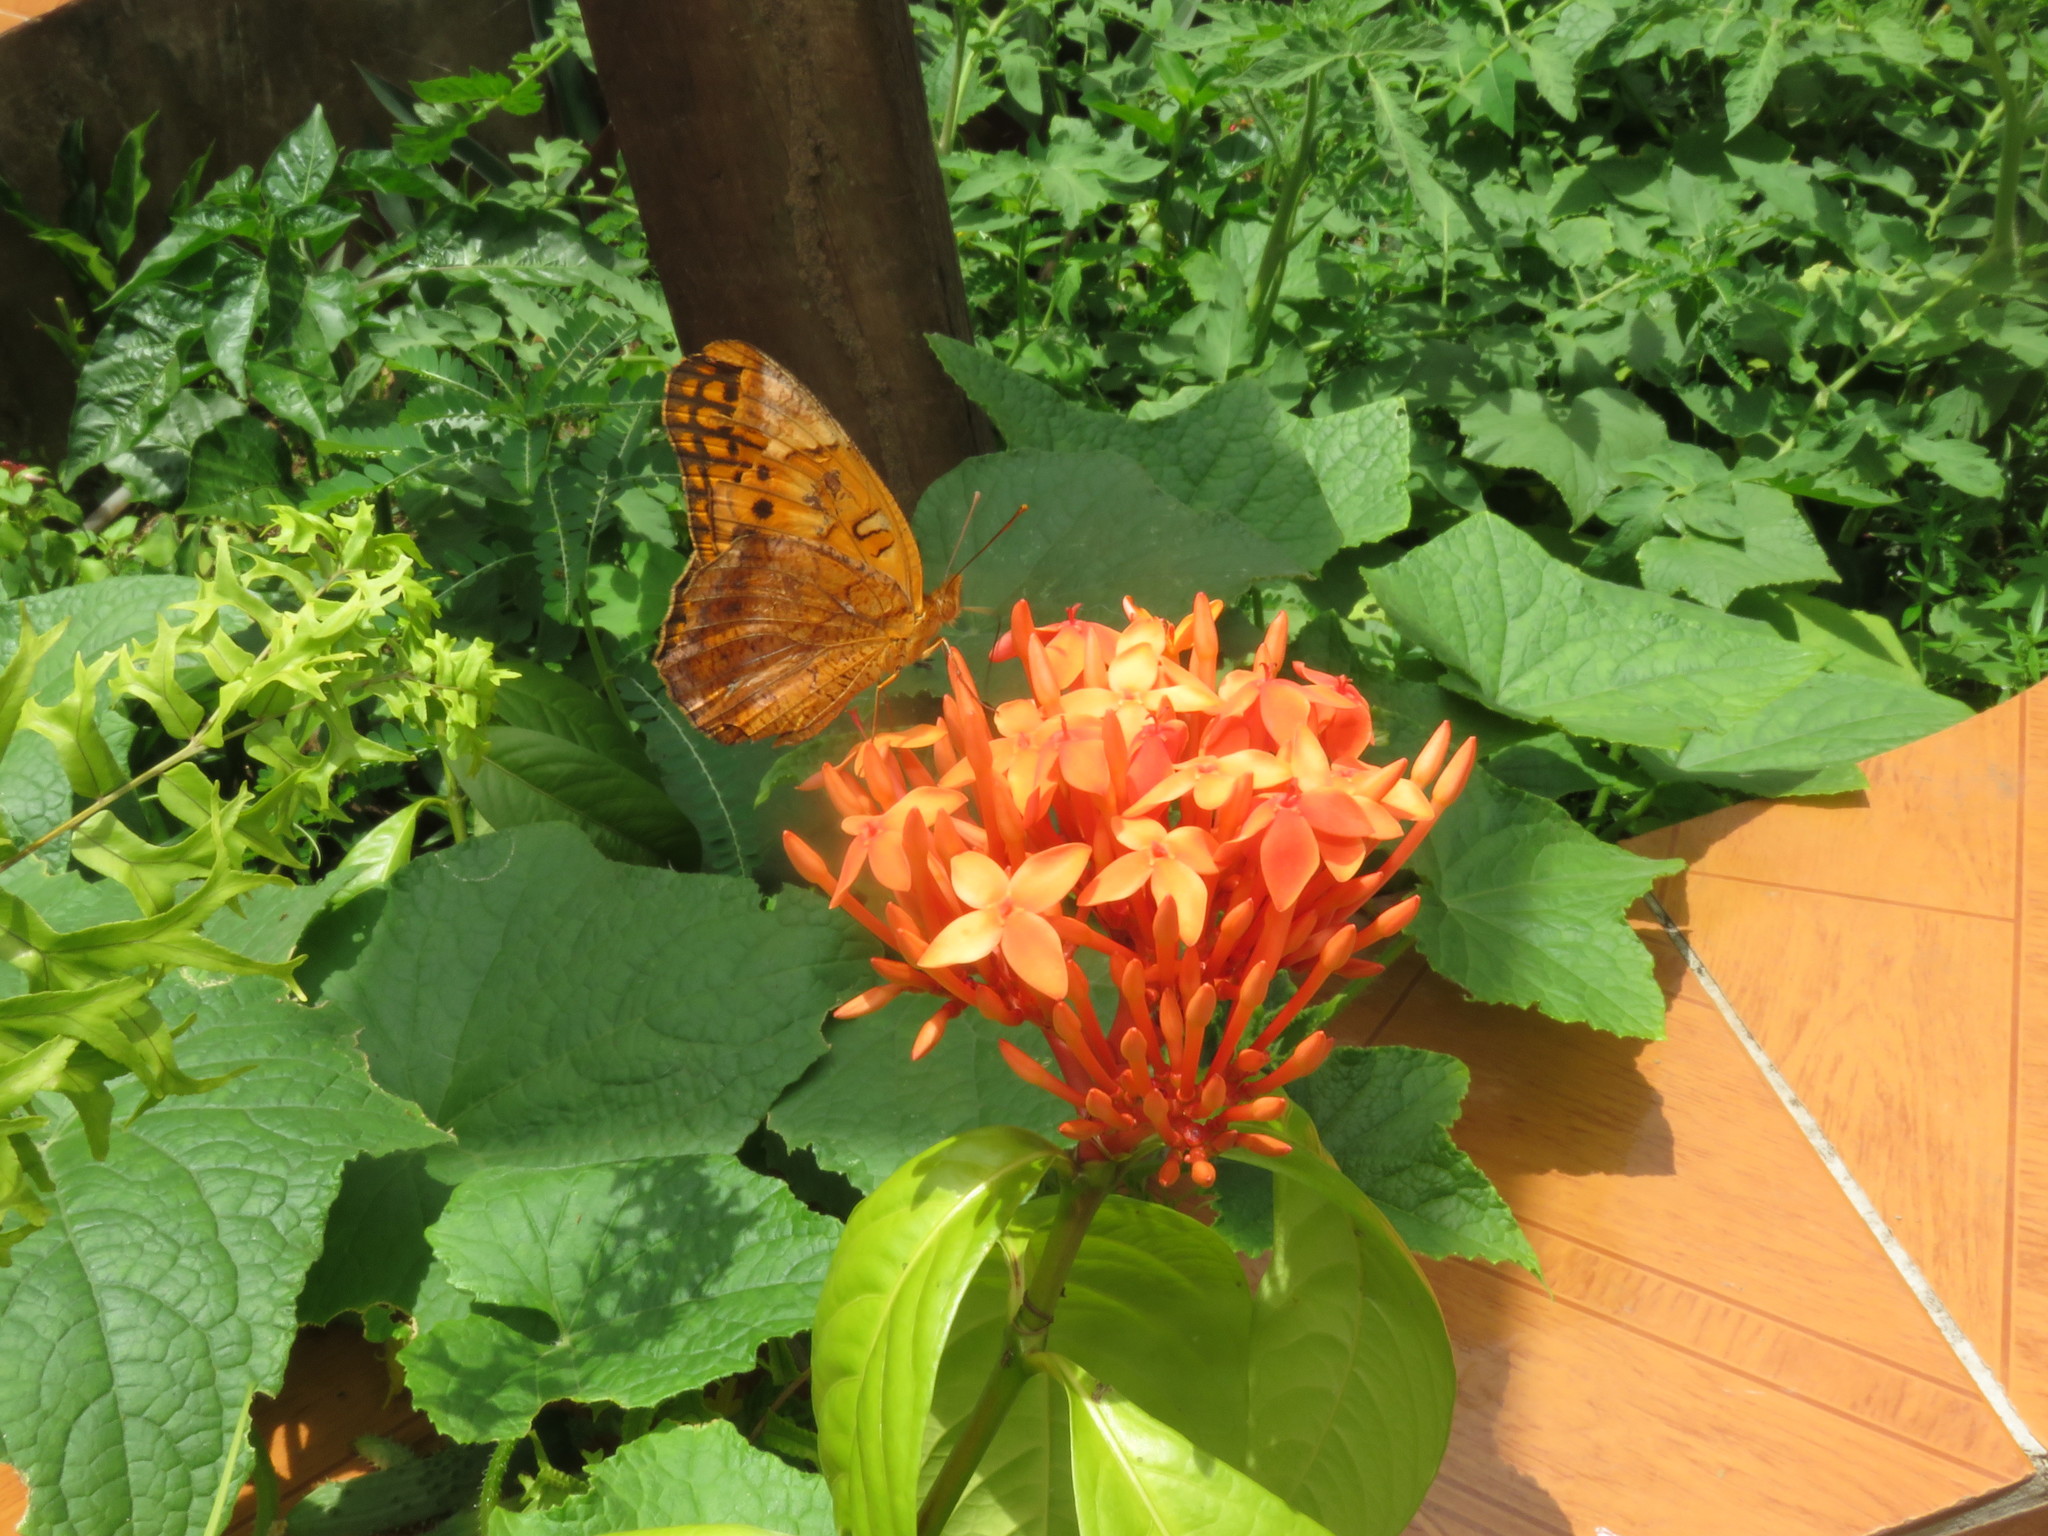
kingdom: Animalia
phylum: Arthropoda
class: Insecta
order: Lepidoptera
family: Nymphalidae
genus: Euptoieta
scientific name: Euptoieta hegesia
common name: Mexican fritillary
